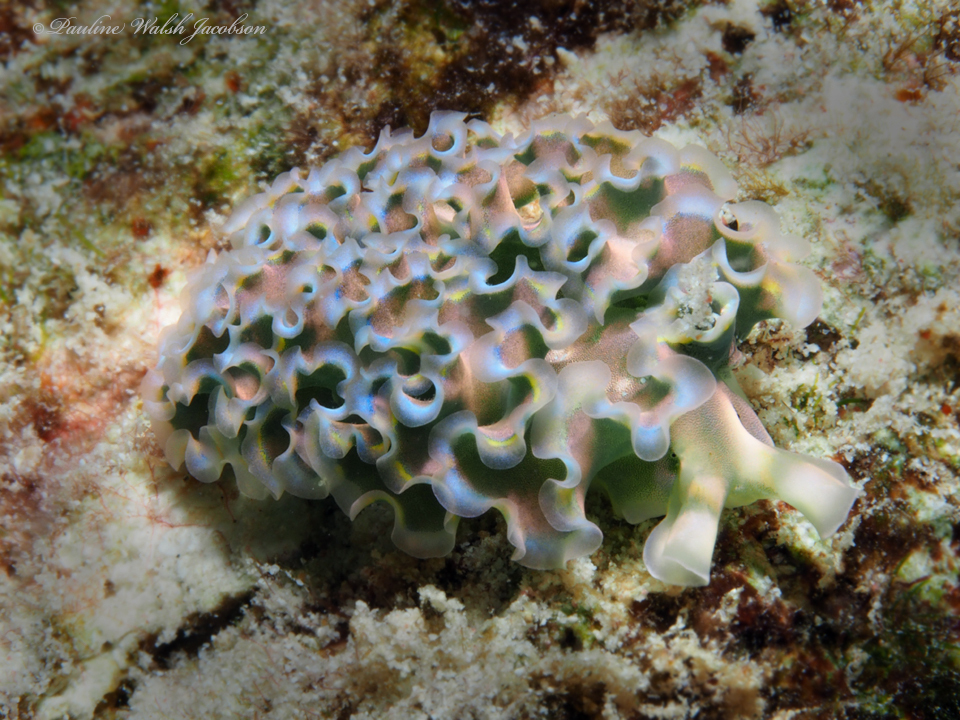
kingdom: Animalia
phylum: Mollusca
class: Gastropoda
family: Plakobranchidae
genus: Elysia
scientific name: Elysia crispata
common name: Lettuce slug
